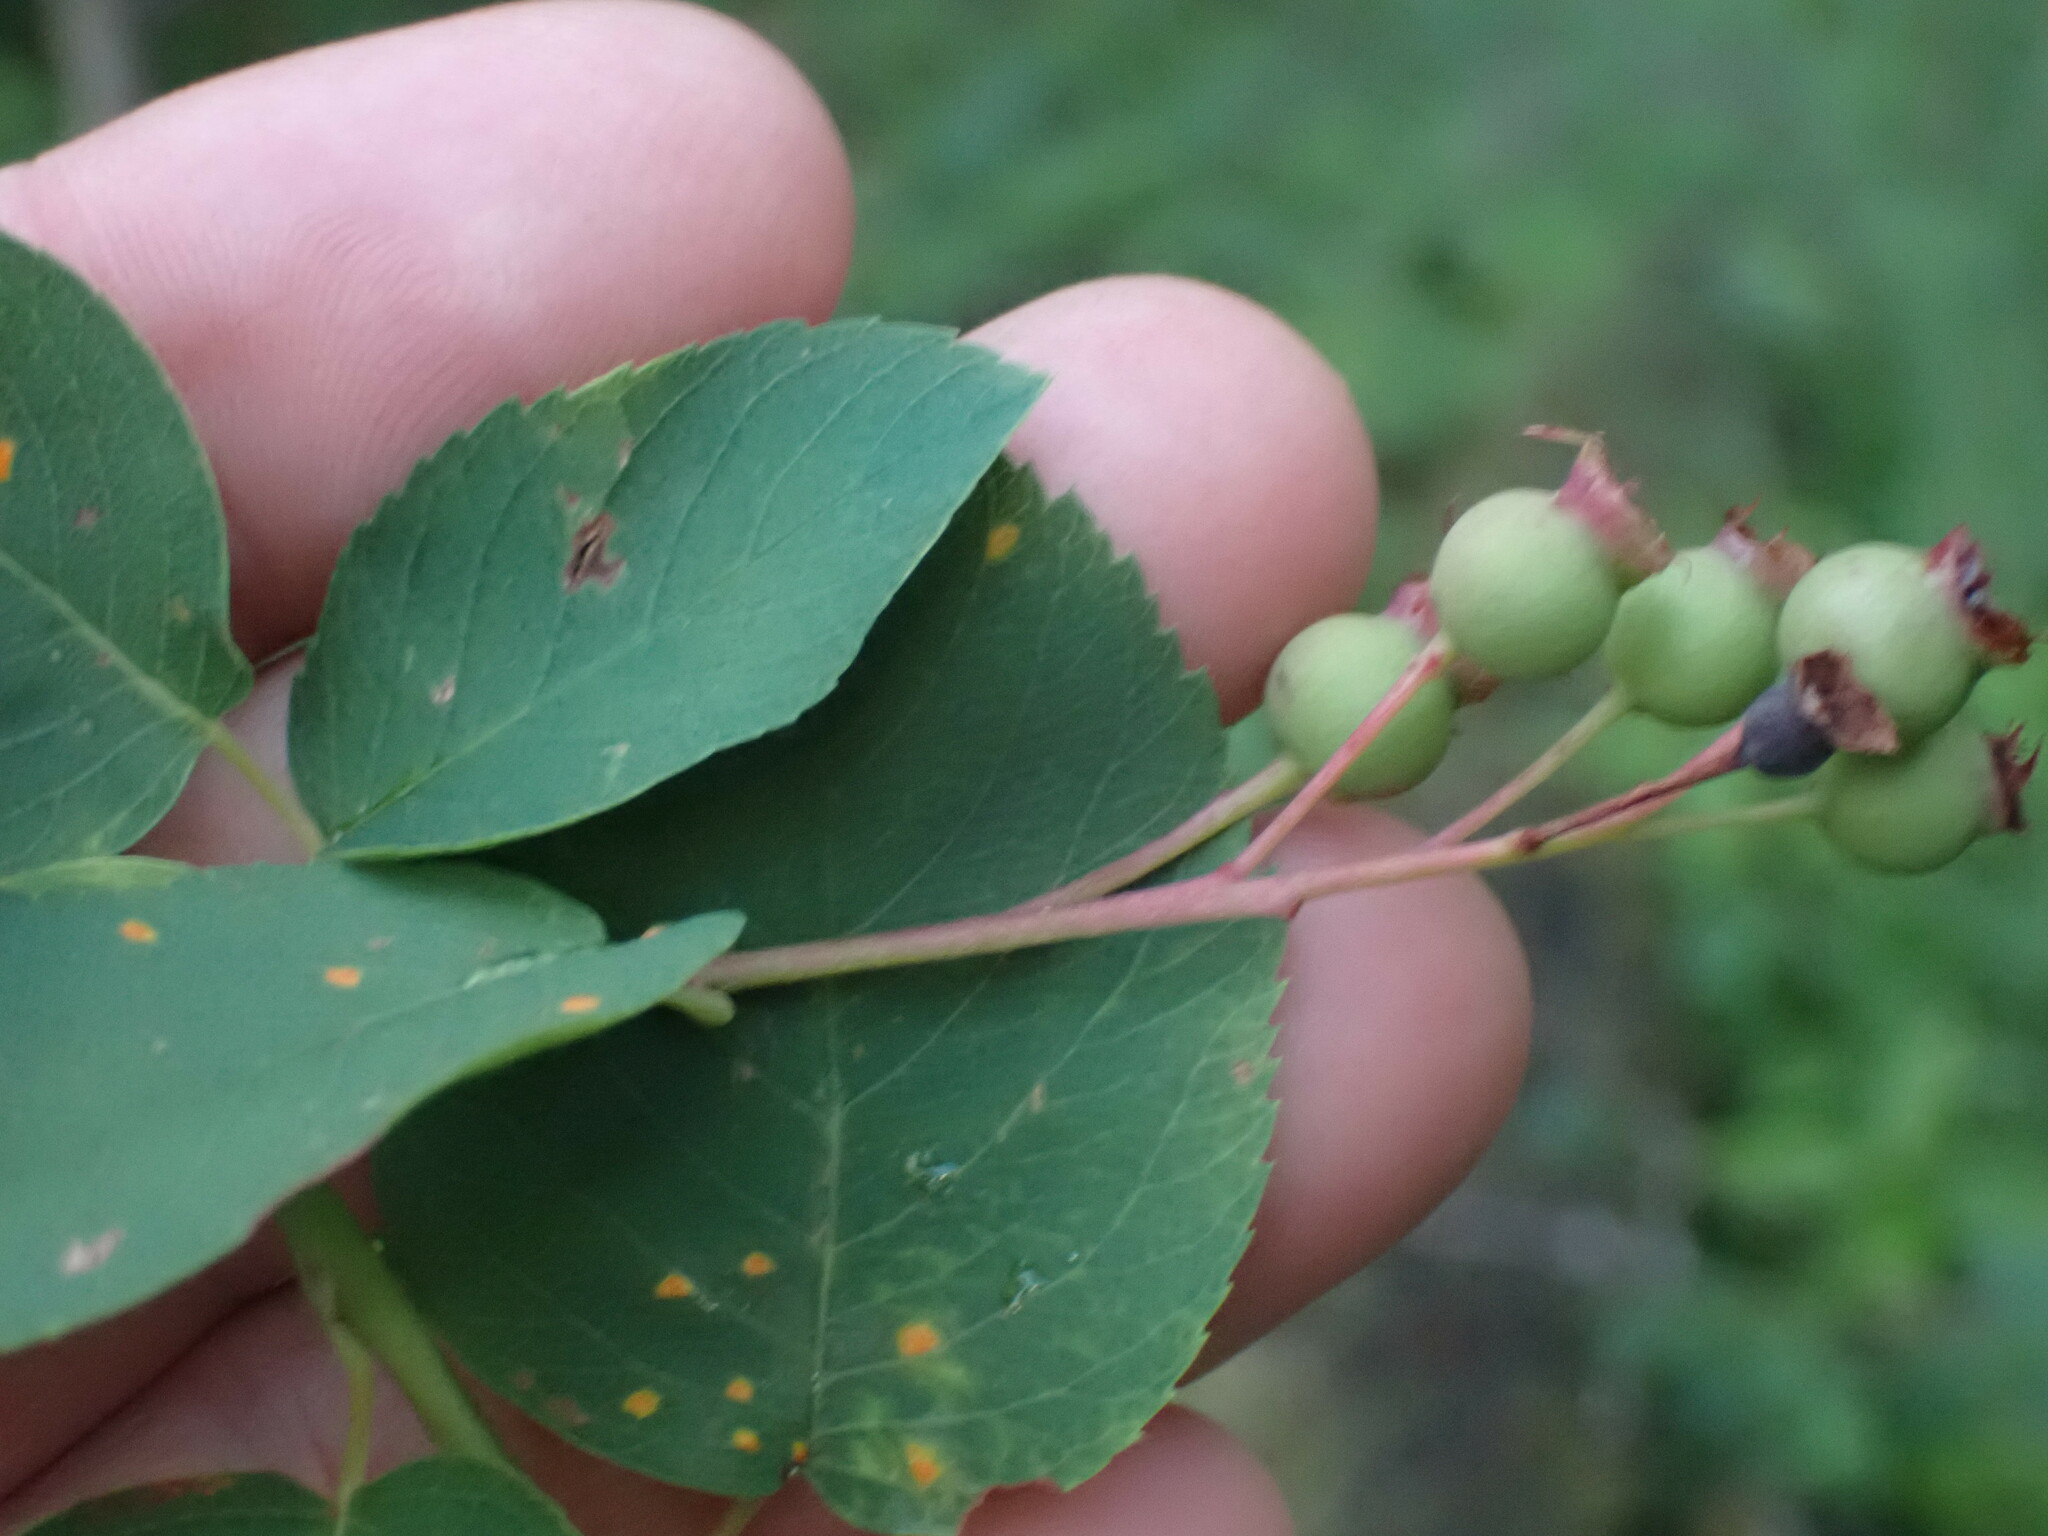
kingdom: Plantae
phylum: Tracheophyta
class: Magnoliopsida
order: Rosales
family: Rosaceae
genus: Amelanchier
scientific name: Amelanchier alnifolia
